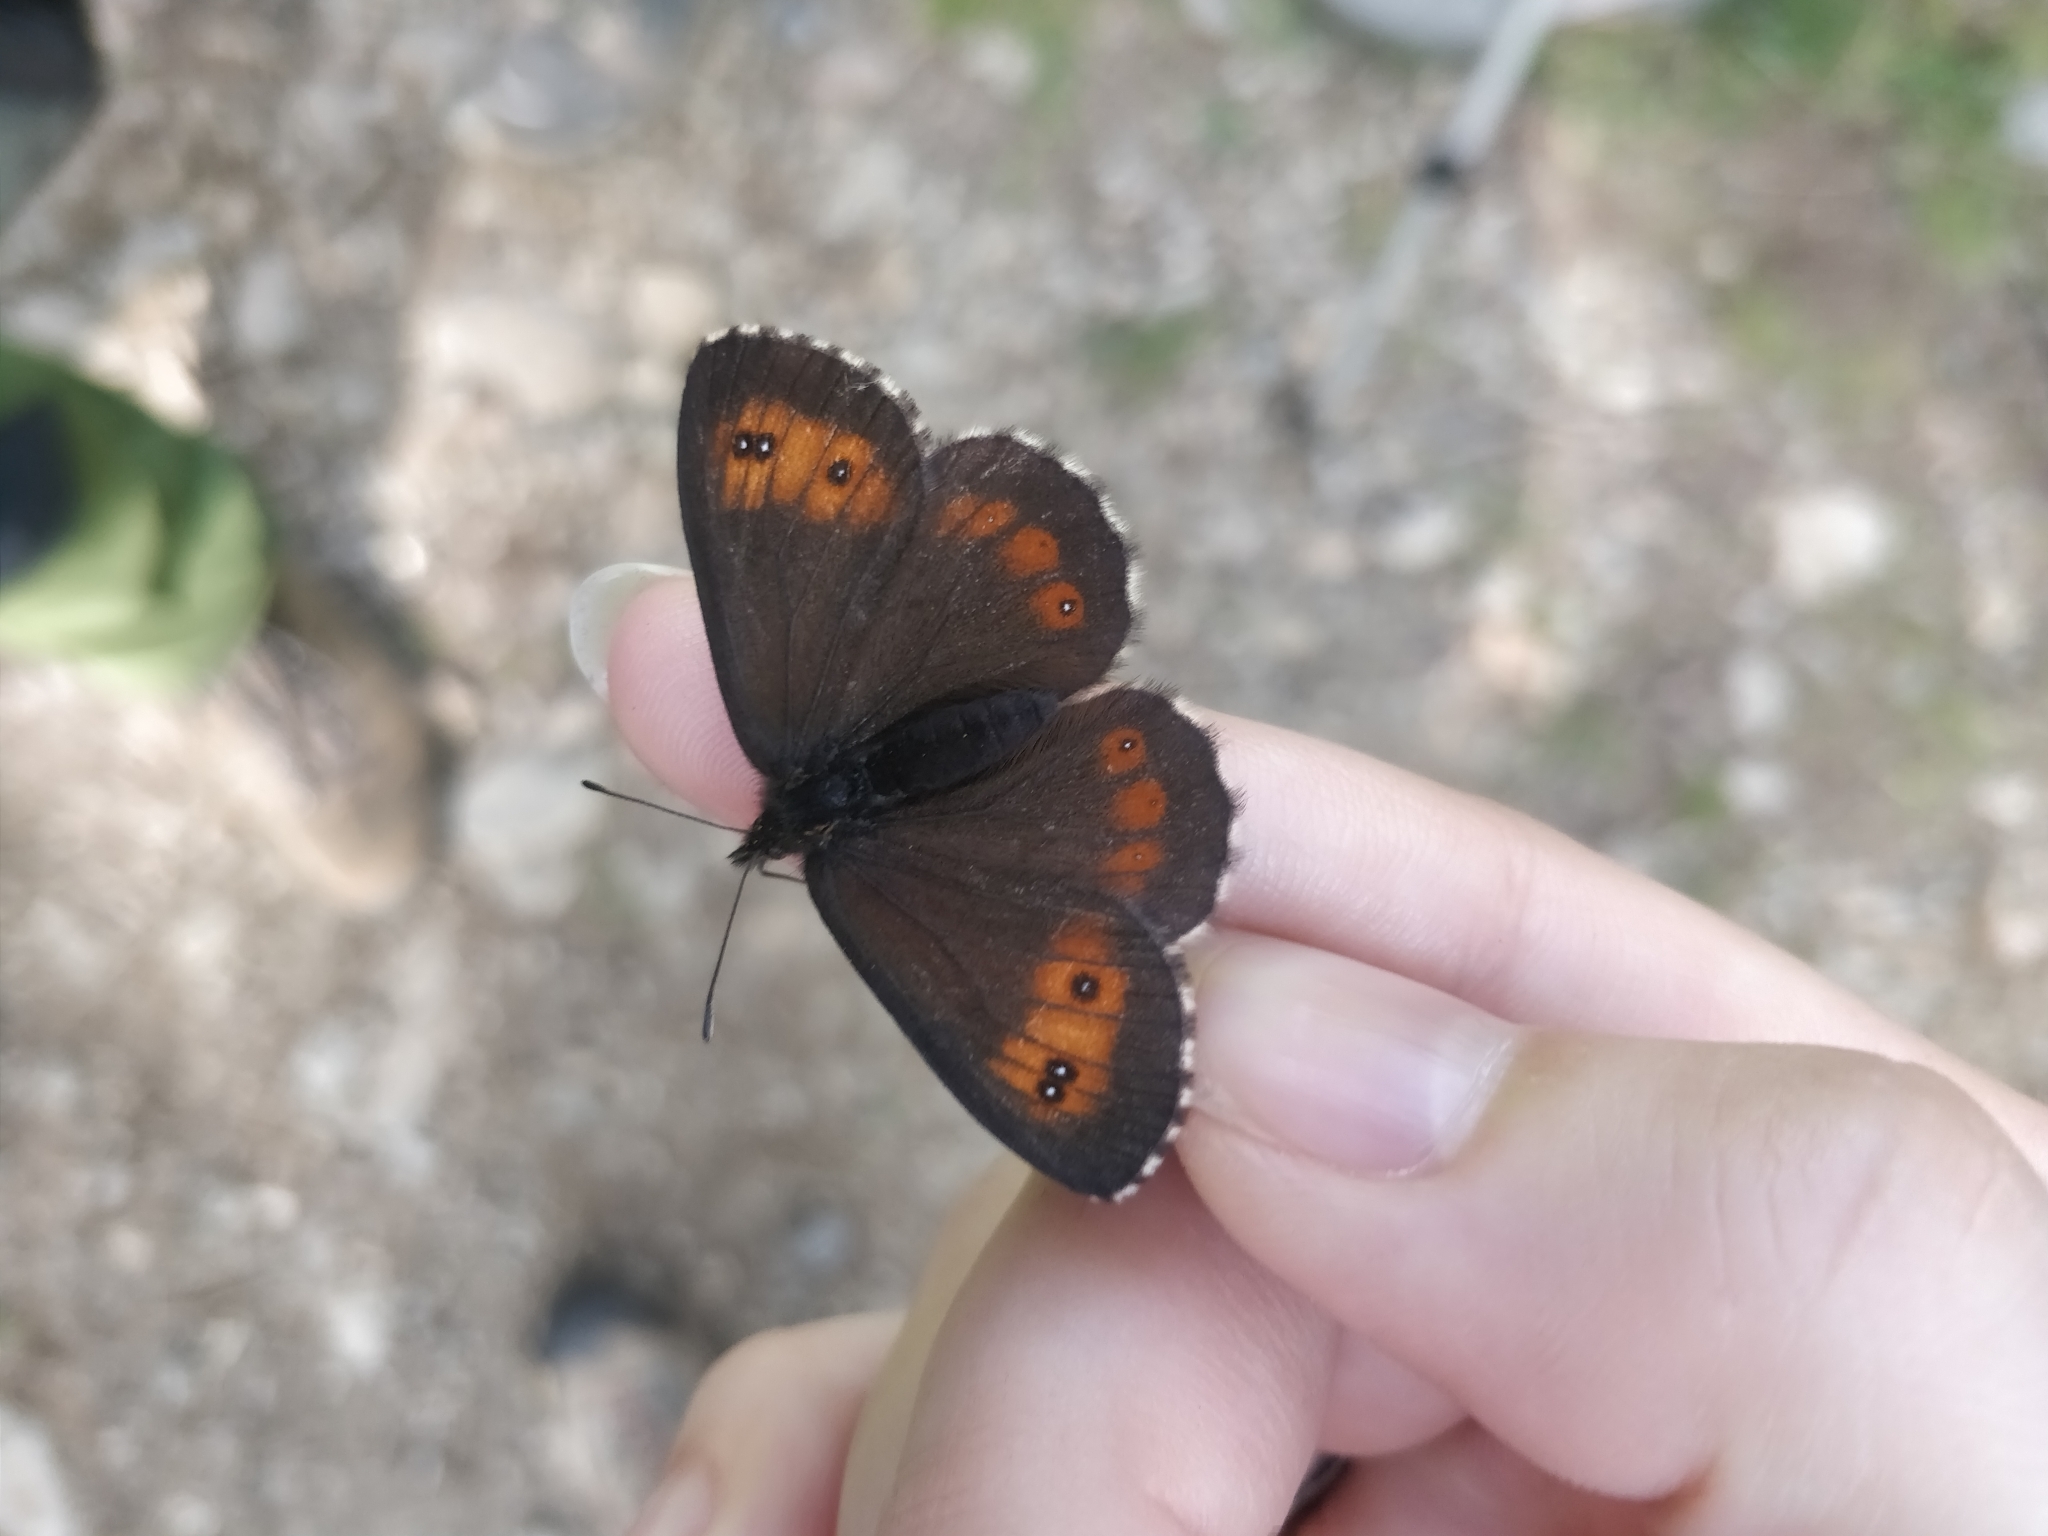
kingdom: Animalia
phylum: Arthropoda
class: Insecta
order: Lepidoptera
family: Nymphalidae
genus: Erebia
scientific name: Erebia euryale
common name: Large ringlet
